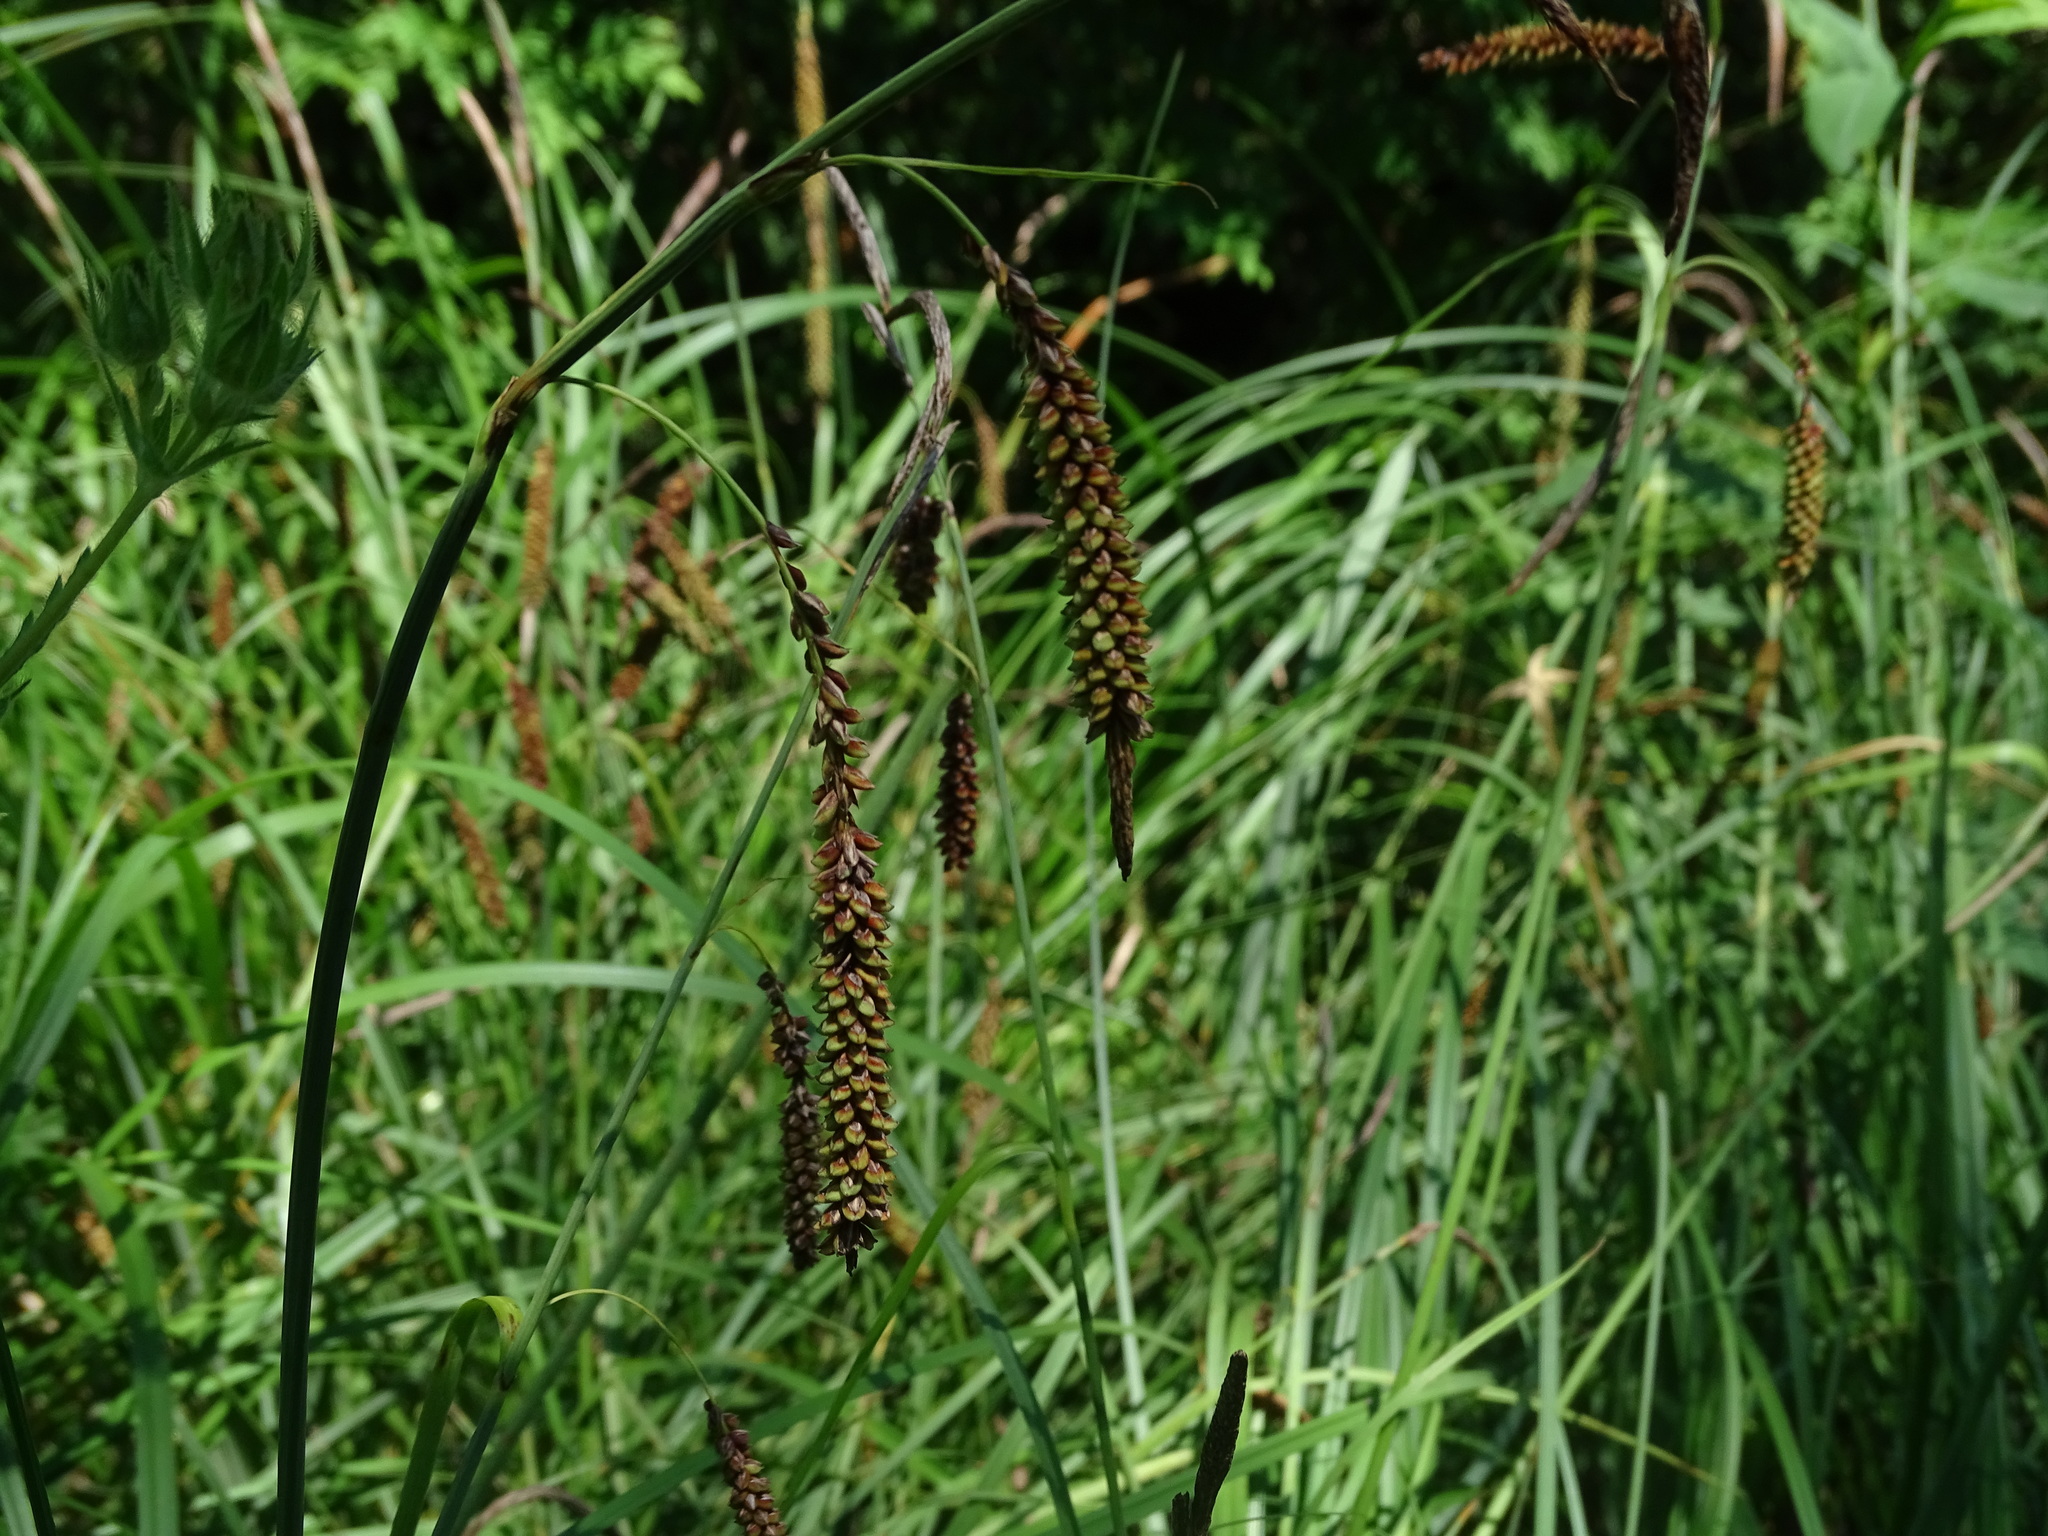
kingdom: Plantae
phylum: Tracheophyta
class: Liliopsida
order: Poales
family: Cyperaceae
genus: Carex
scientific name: Carex flacca
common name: Glaucous sedge
